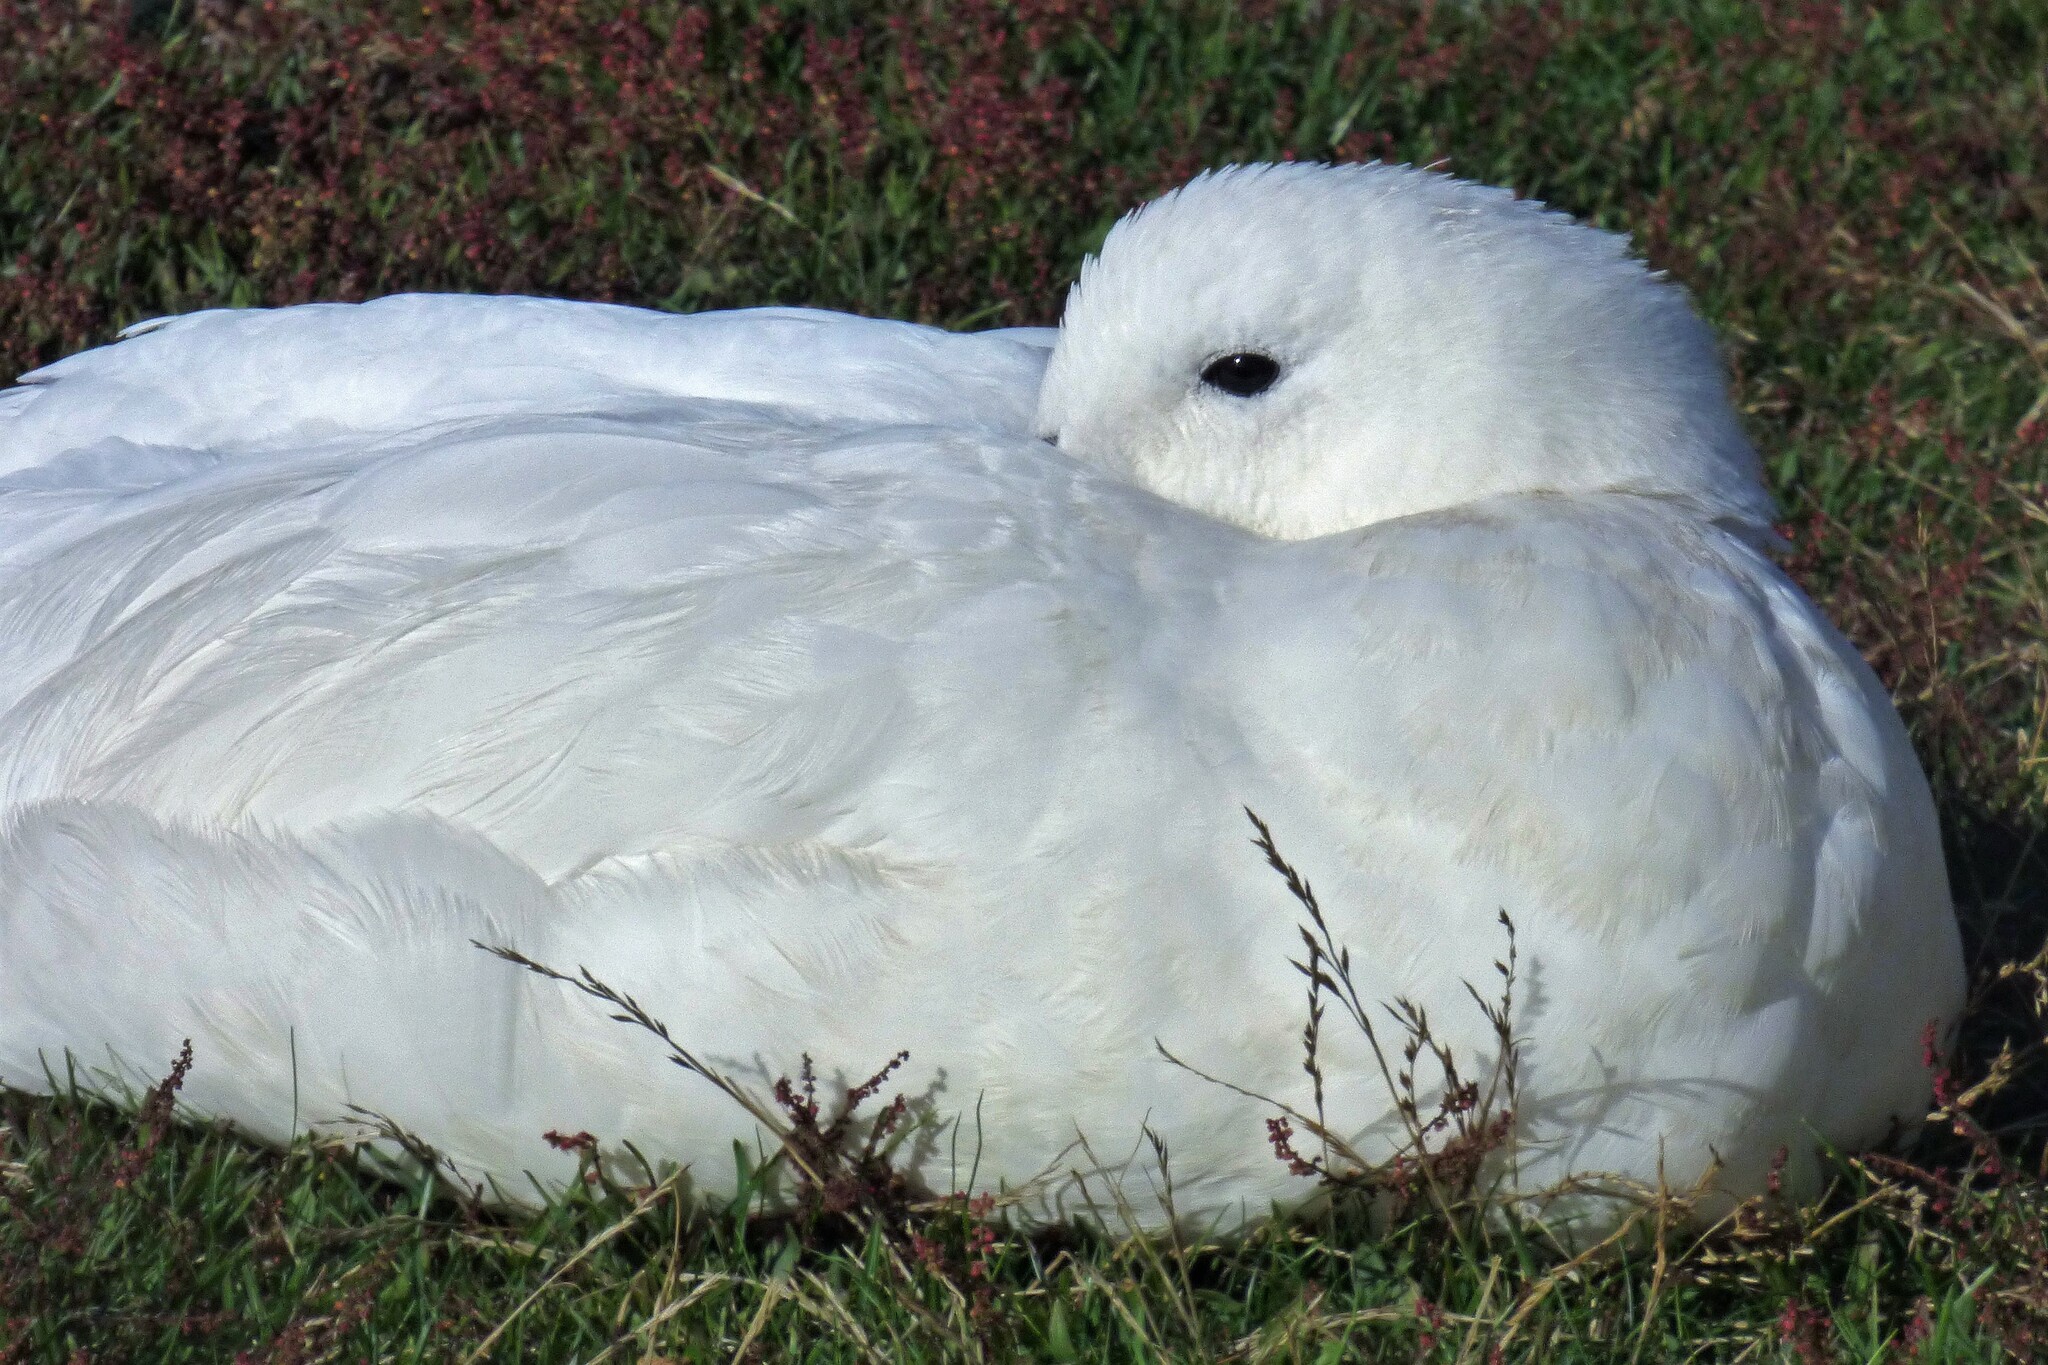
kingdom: Animalia
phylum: Chordata
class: Aves
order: Anseriformes
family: Anatidae
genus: Chloephaga
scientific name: Chloephaga hybrida
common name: Kelp goose
